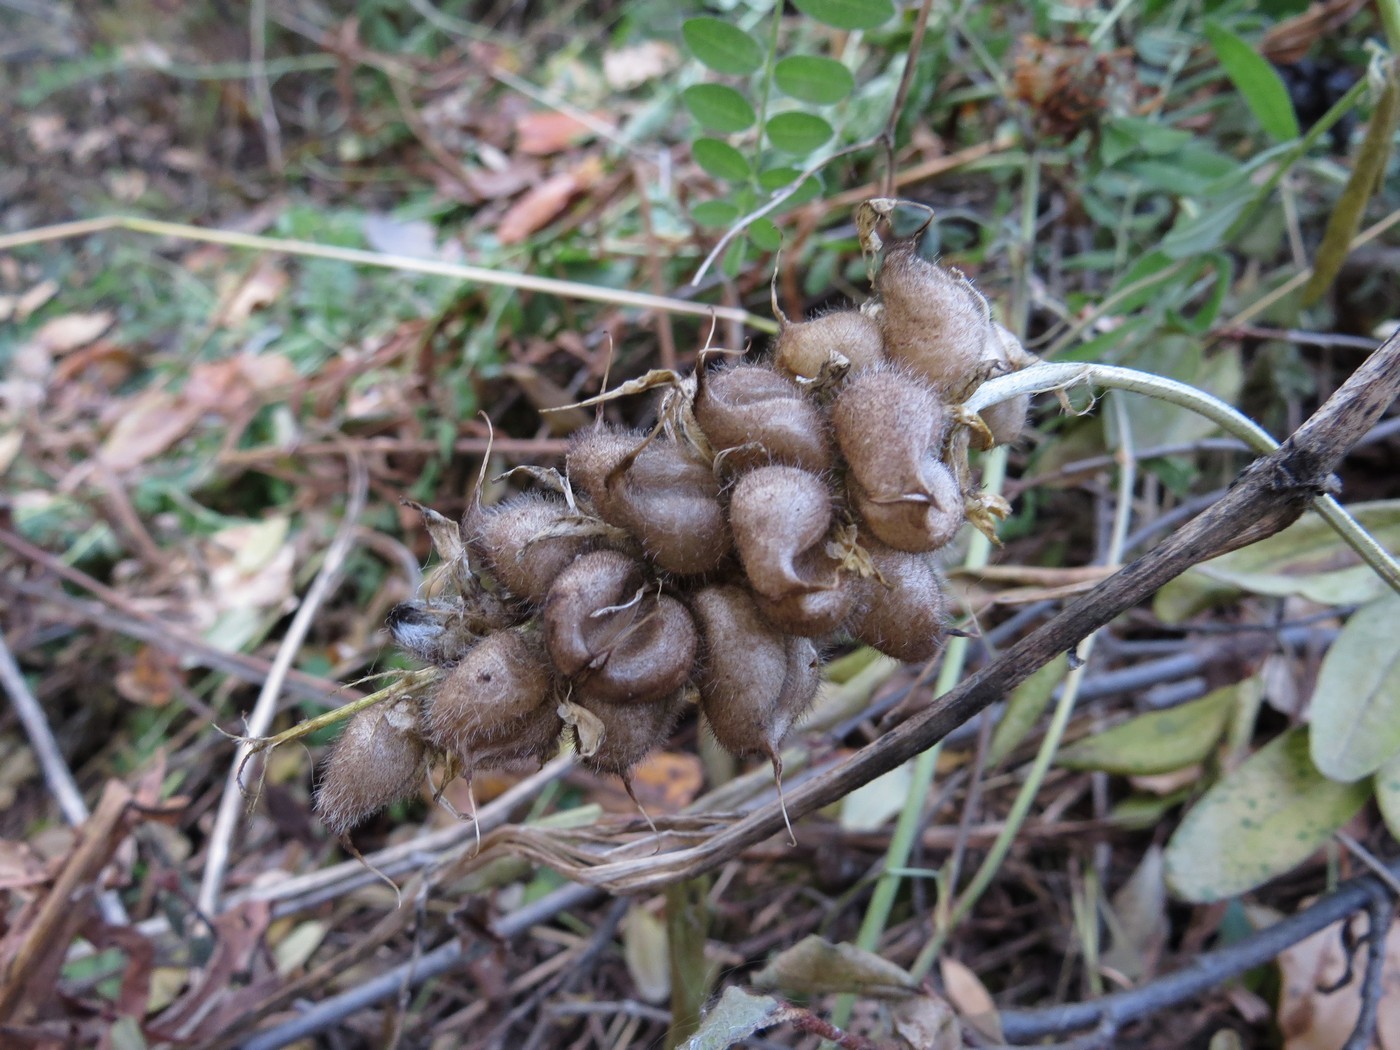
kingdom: Plantae
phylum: Tracheophyta
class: Magnoliopsida
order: Fabales
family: Fabaceae
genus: Astragalus
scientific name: Astragalus cicer
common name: Chick-pea milk-vetch
